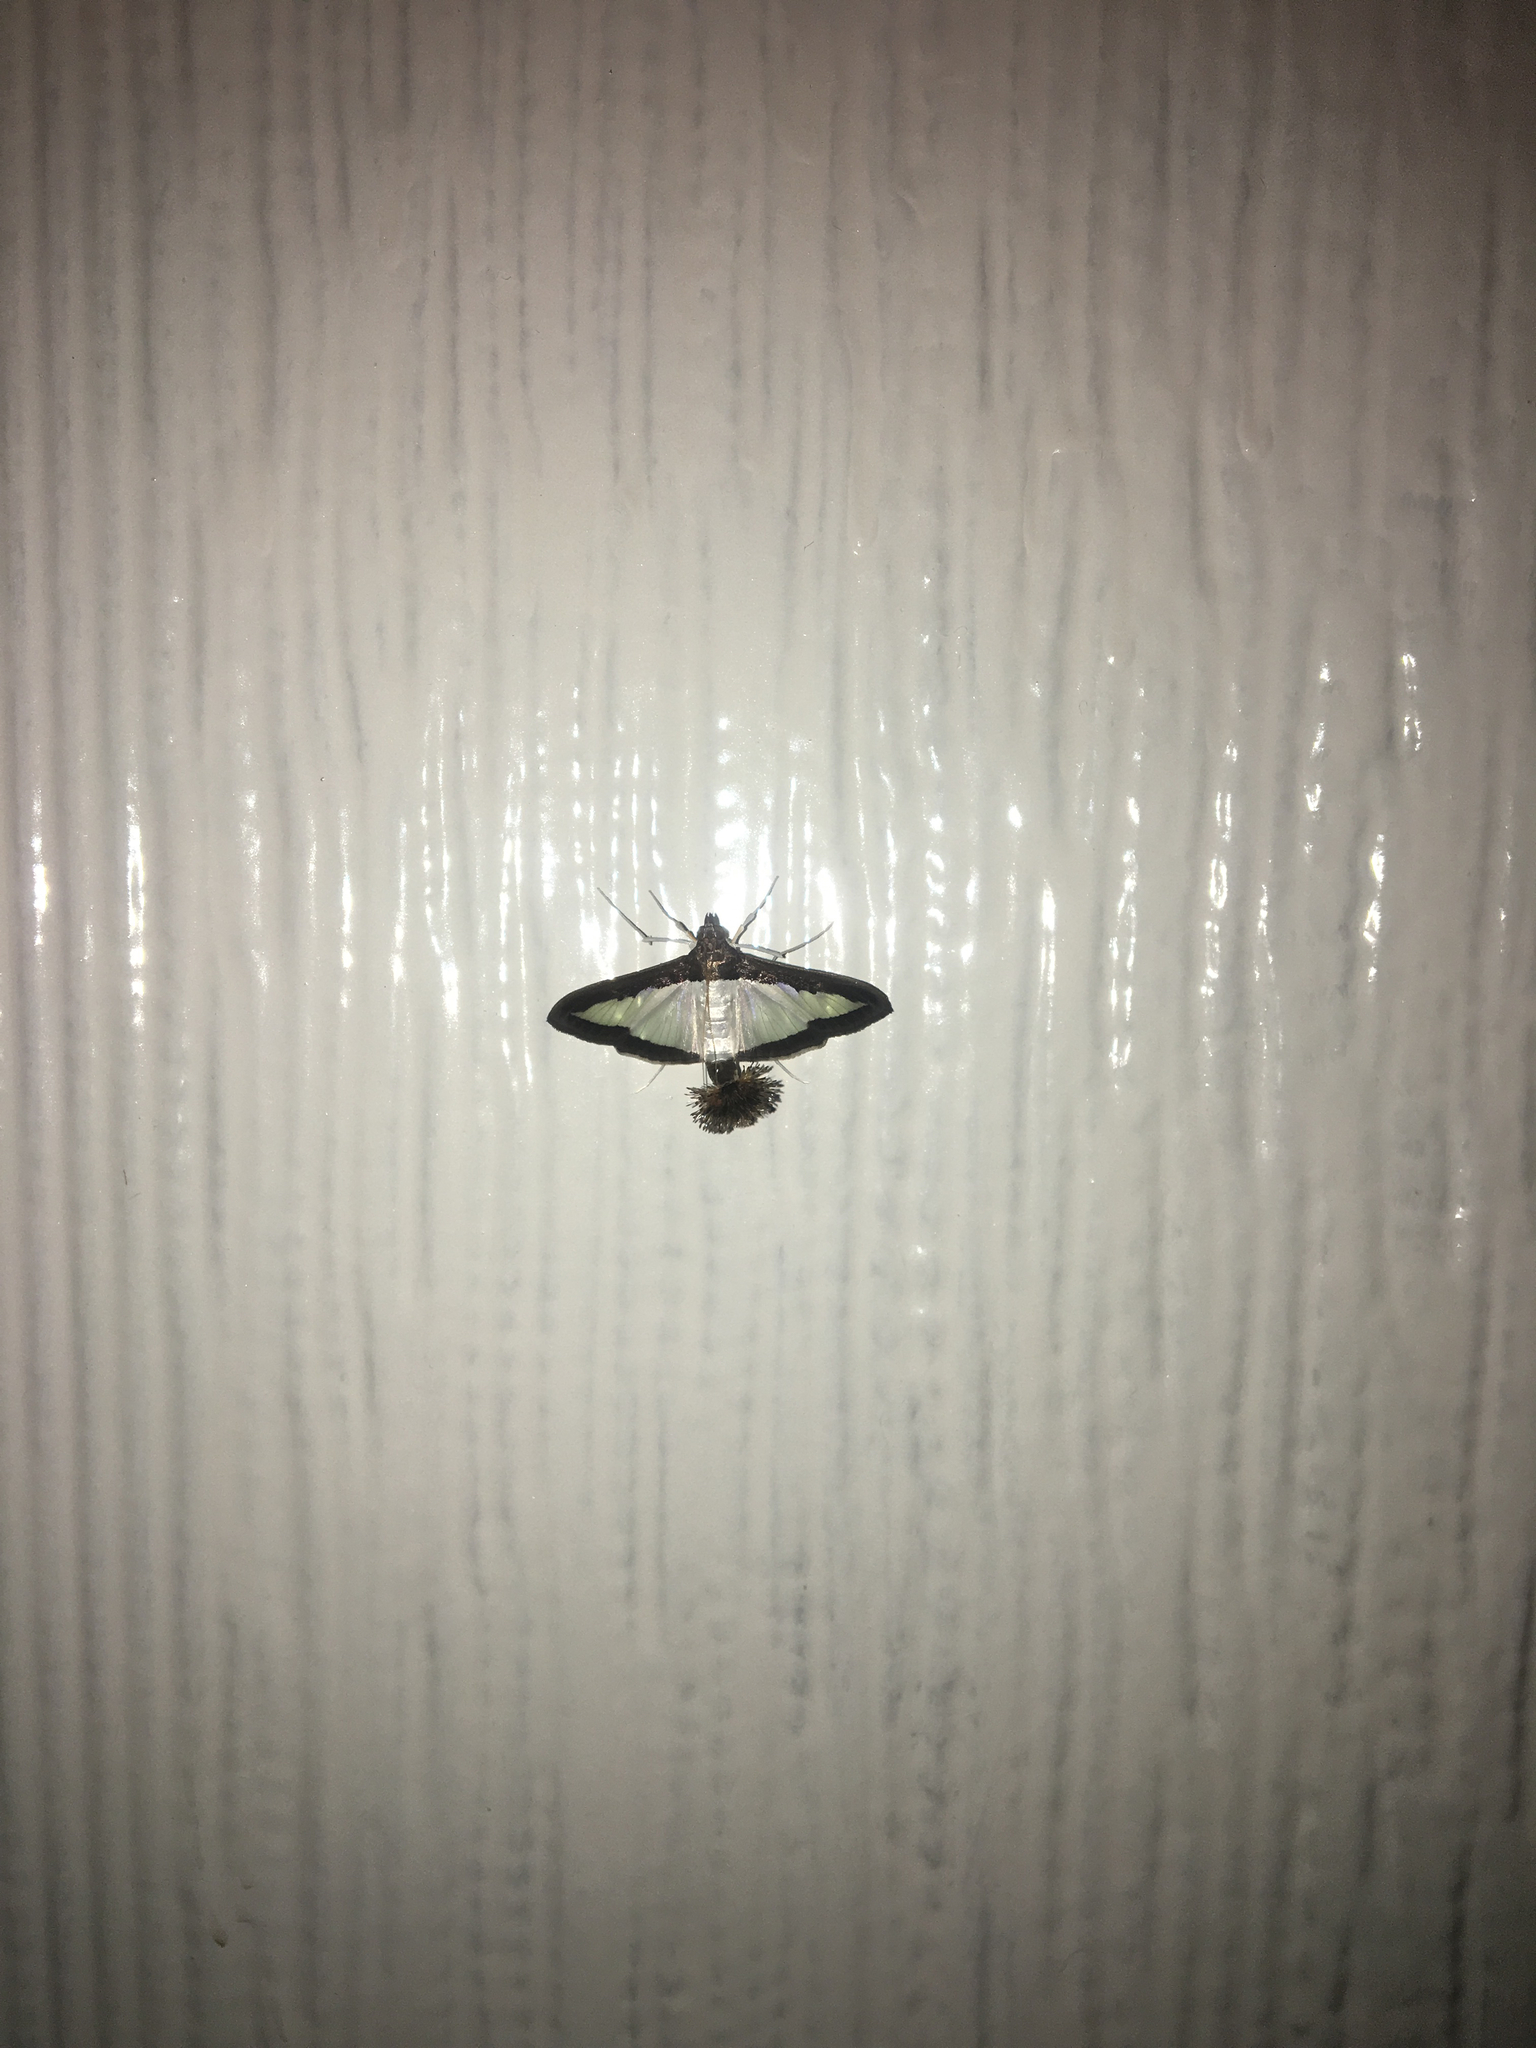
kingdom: Animalia
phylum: Arthropoda
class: Insecta
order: Lepidoptera
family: Crambidae
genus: Diaphania
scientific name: Diaphania hyalinata
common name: Melonworm
